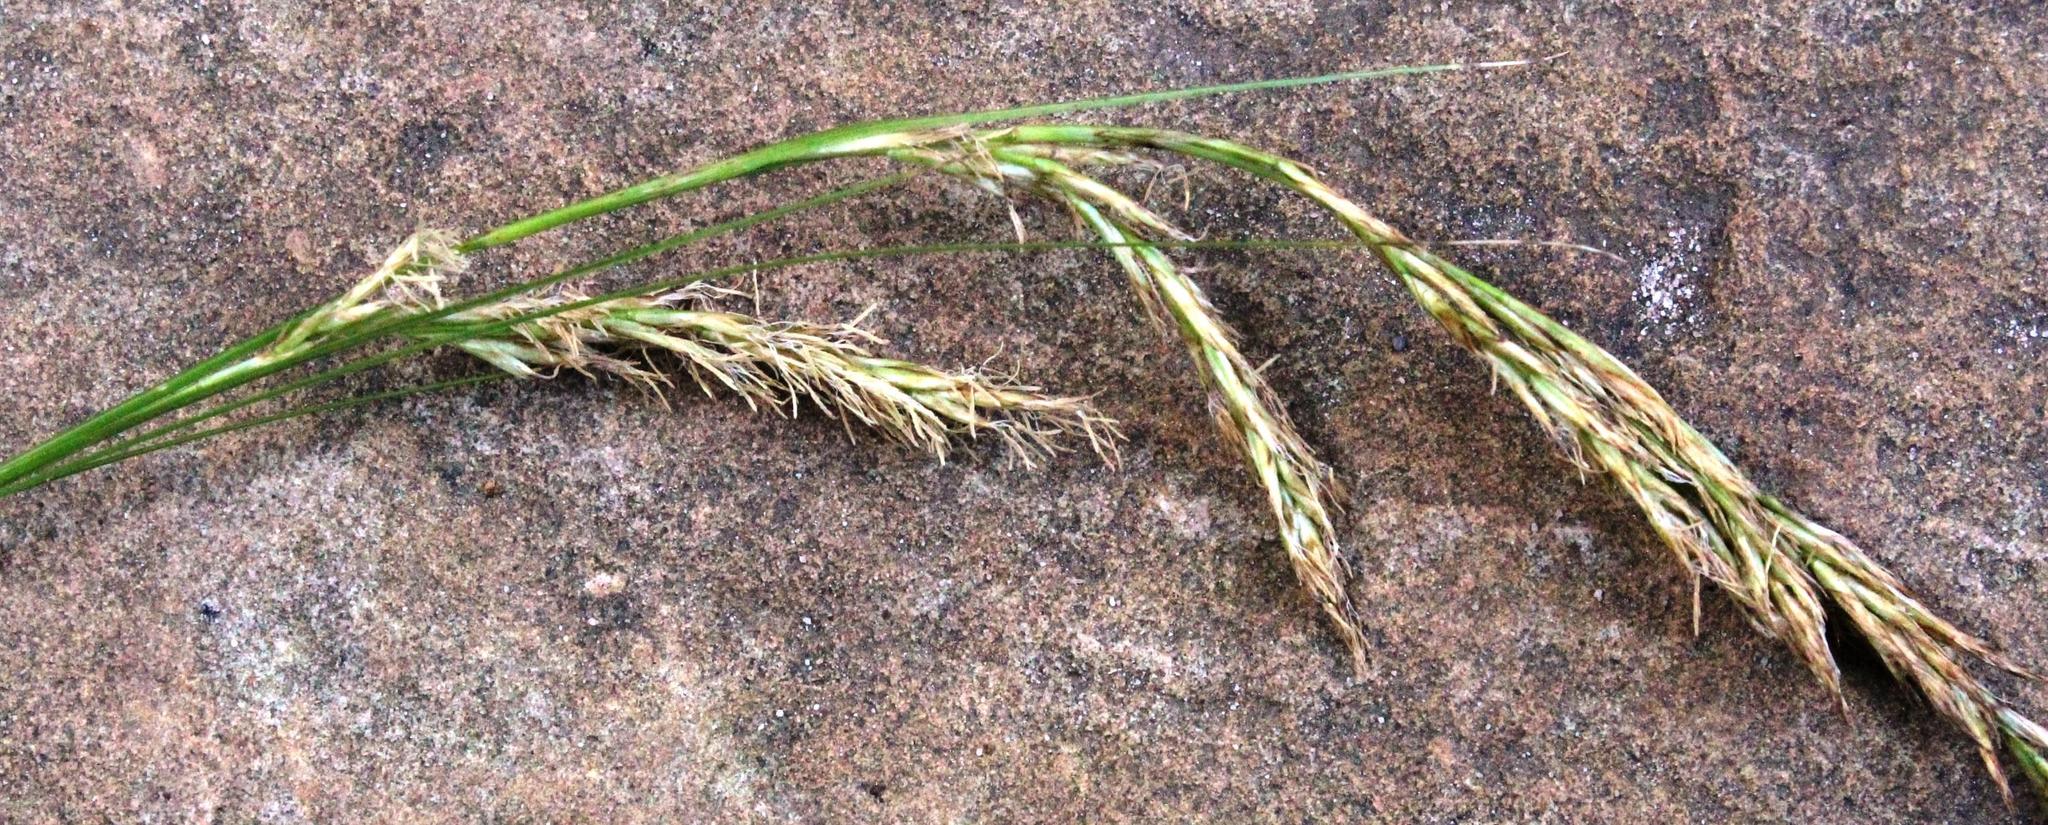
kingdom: Plantae
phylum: Tracheophyta
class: Liliopsida
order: Poales
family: Cyperaceae
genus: Carex
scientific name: Carex lancea
